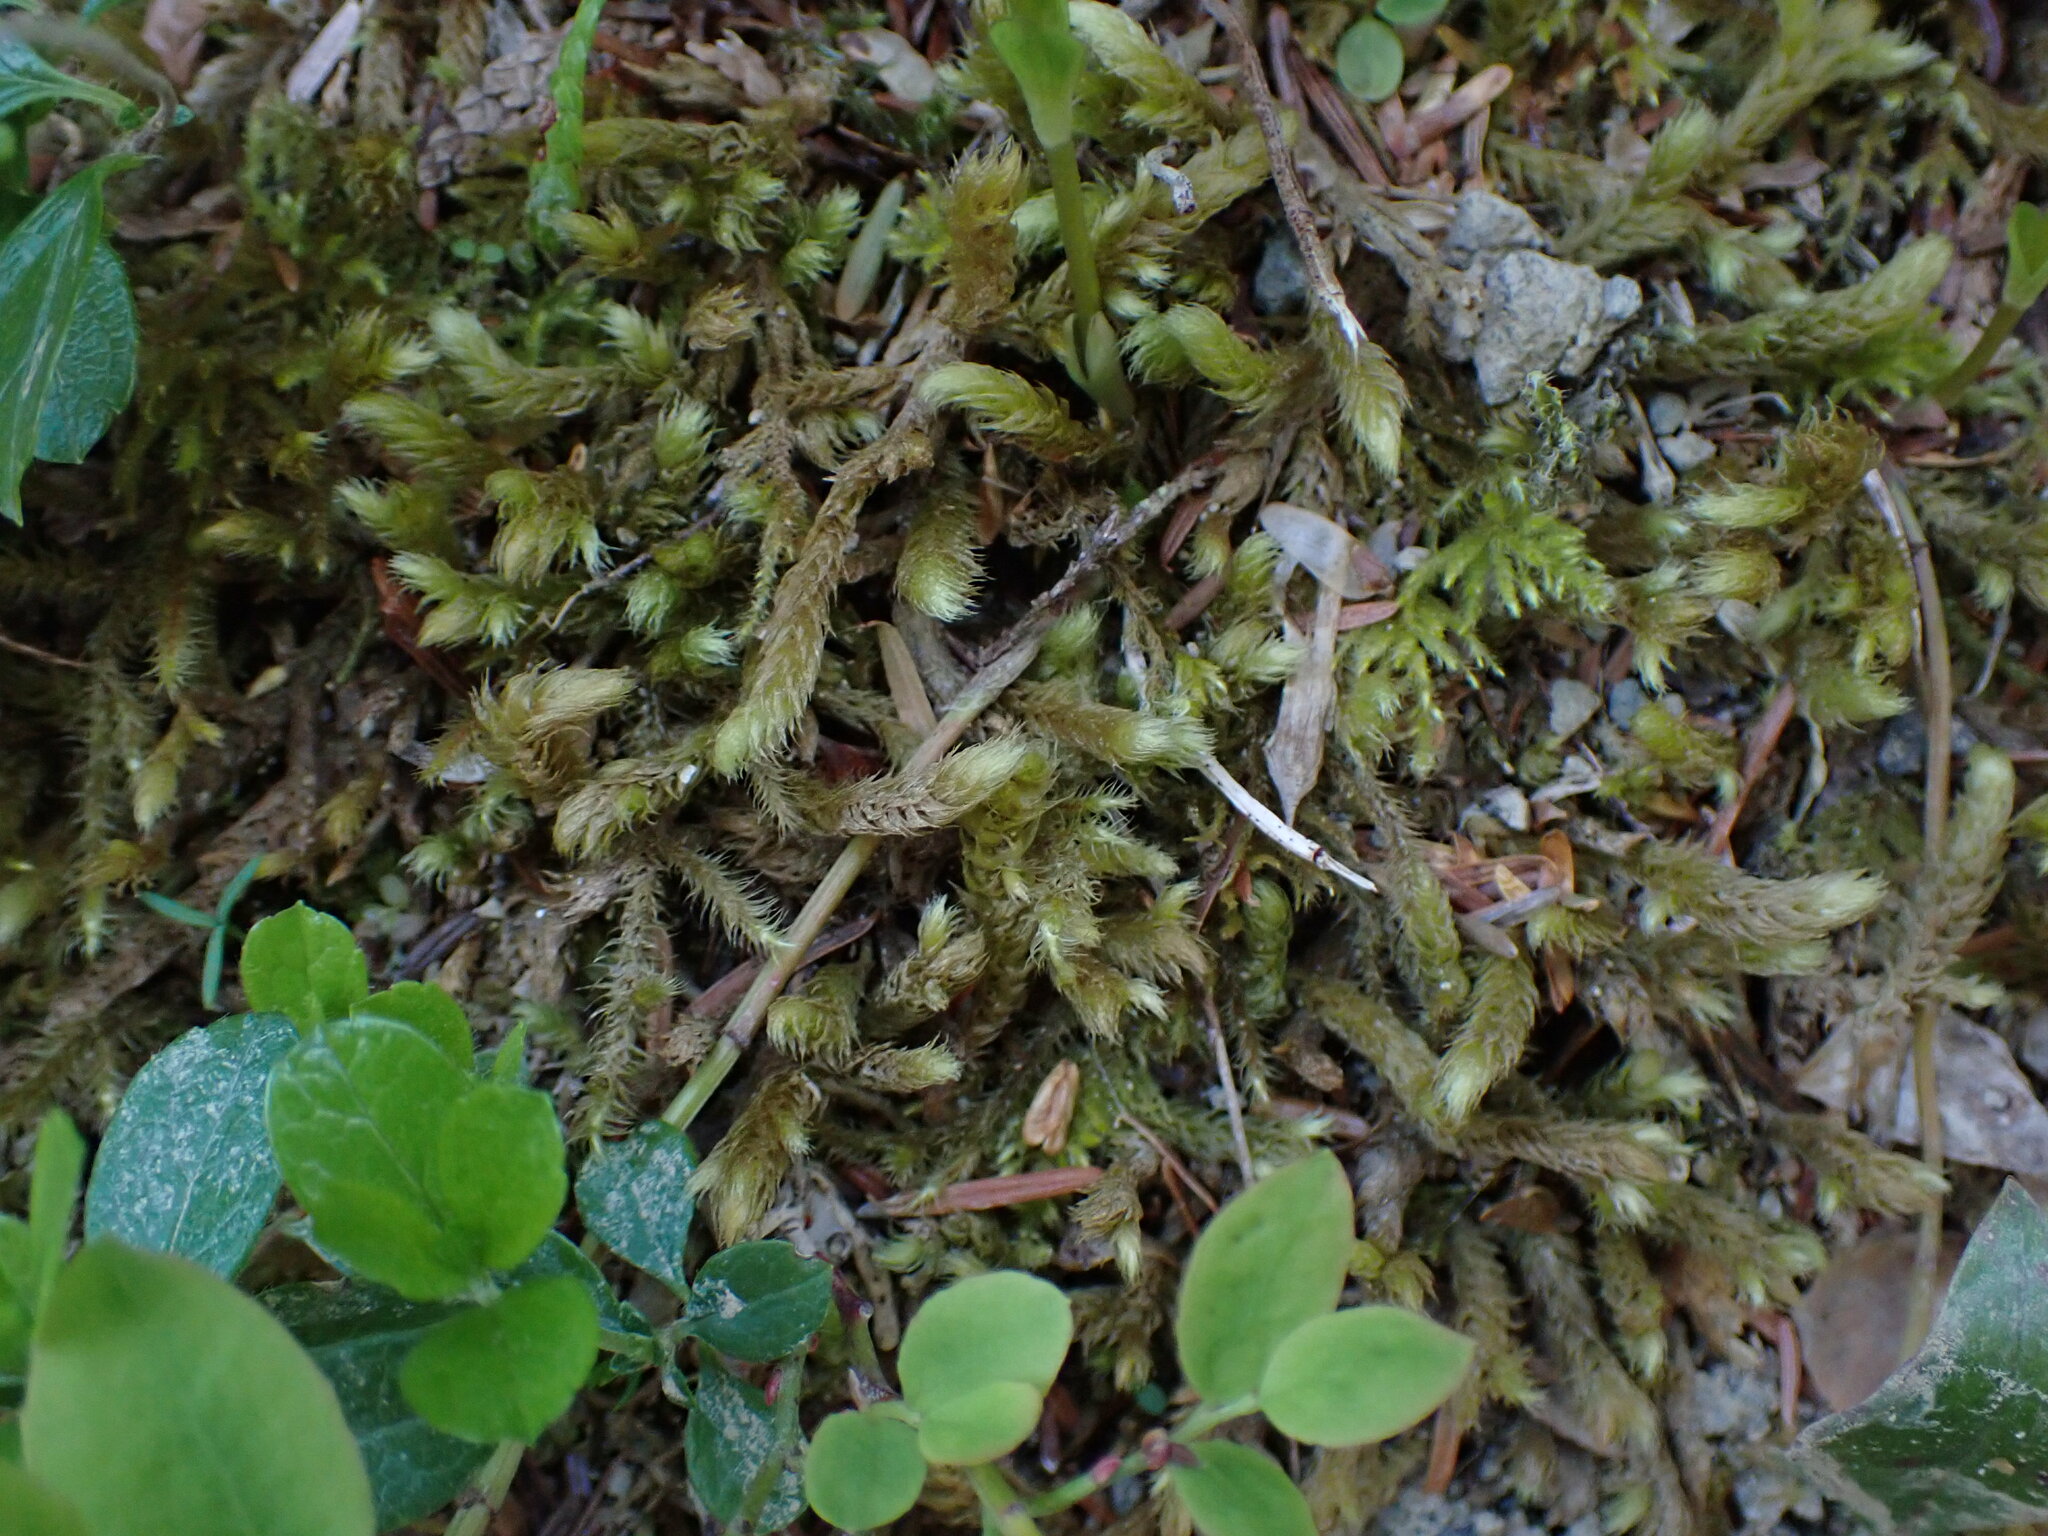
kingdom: Plantae
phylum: Bryophyta
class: Bryopsida
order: Hypnales
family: Hylocomiaceae
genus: Rhytidiopsis
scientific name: Rhytidiopsis robusta
